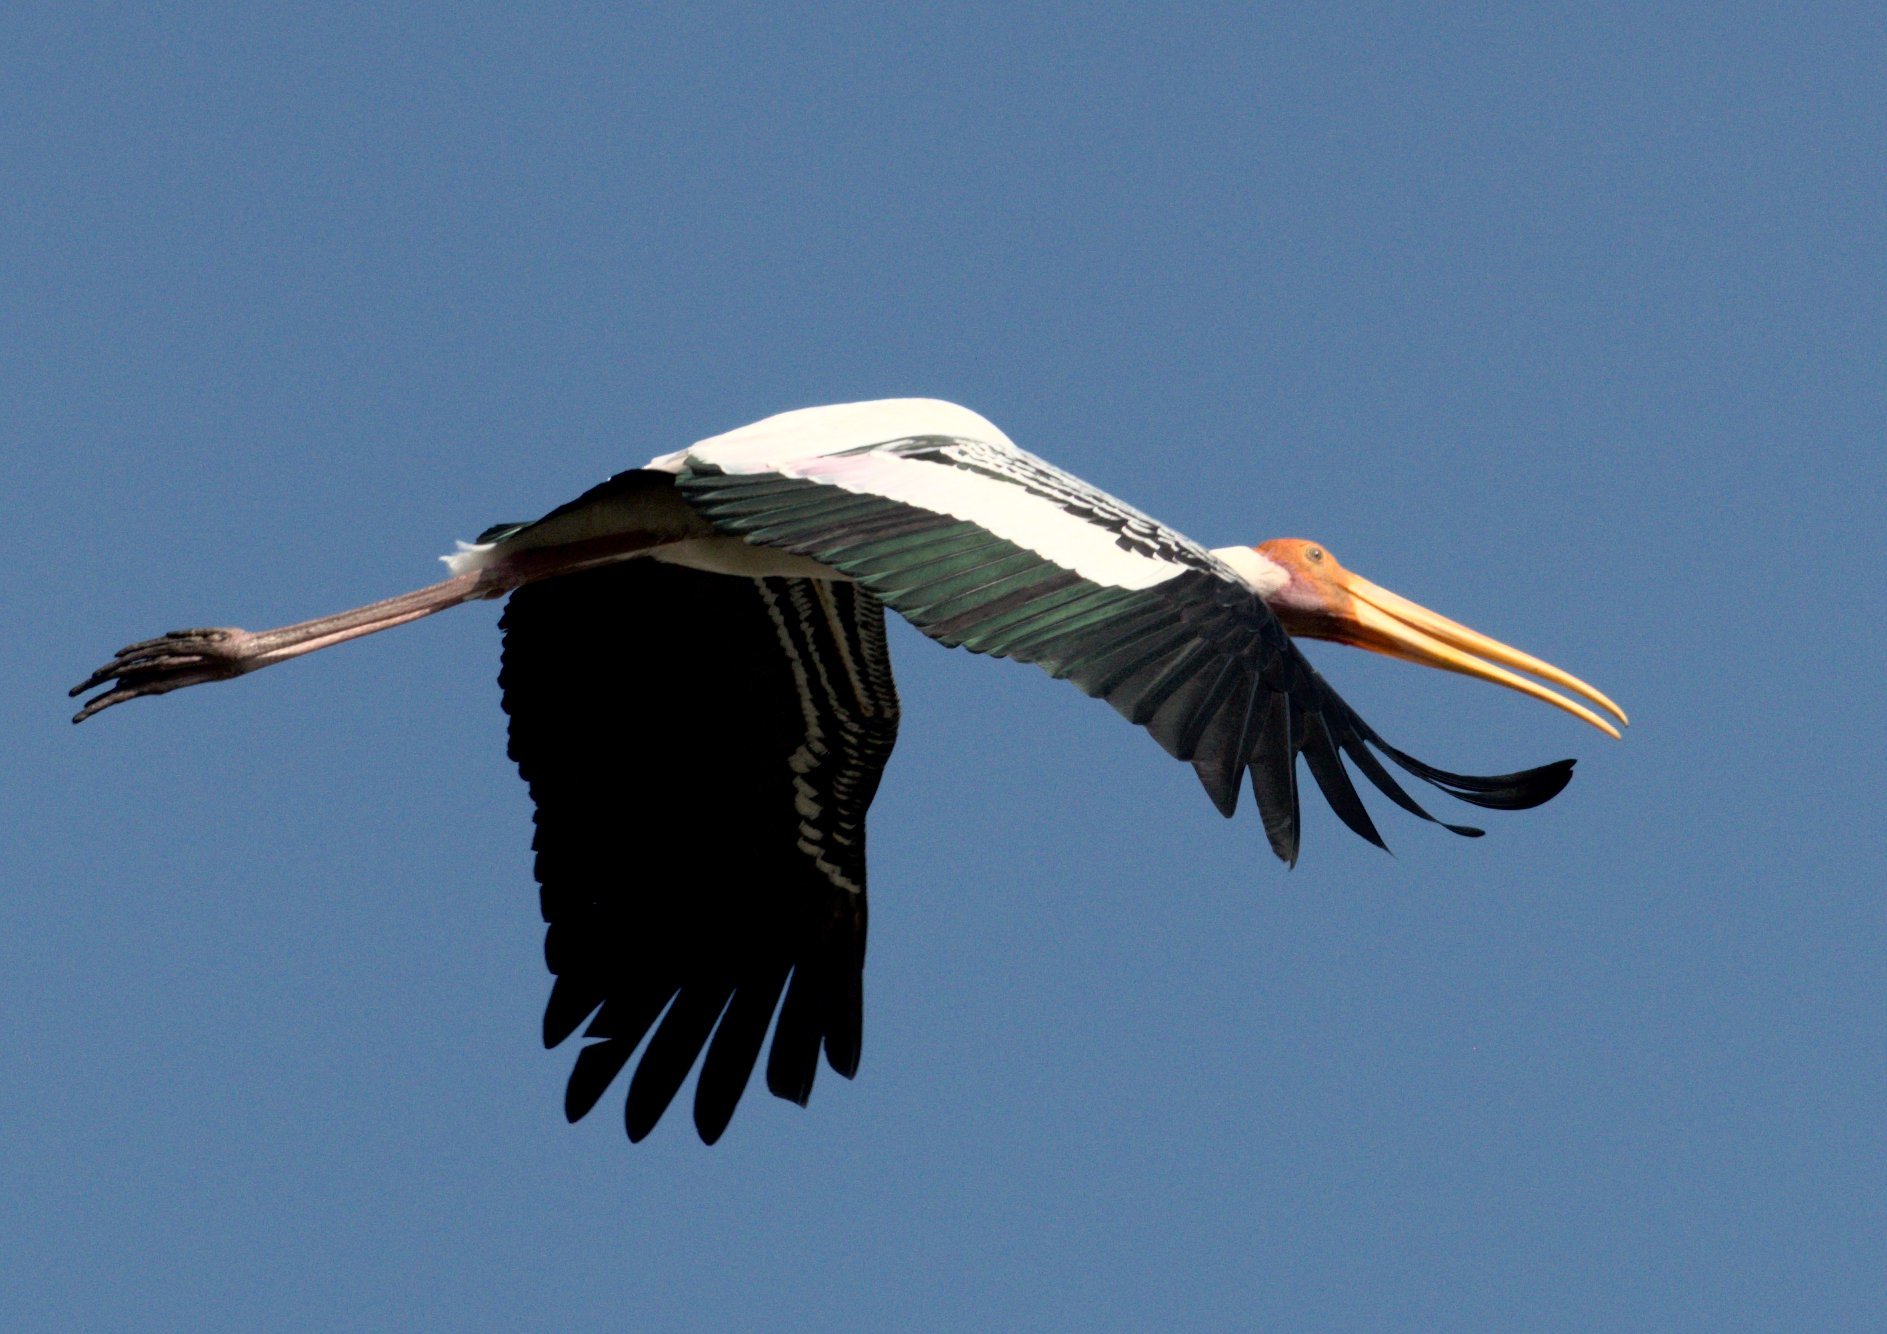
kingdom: Animalia
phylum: Chordata
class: Aves
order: Ciconiiformes
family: Ciconiidae
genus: Mycteria
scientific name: Mycteria leucocephala
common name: Painted stork
